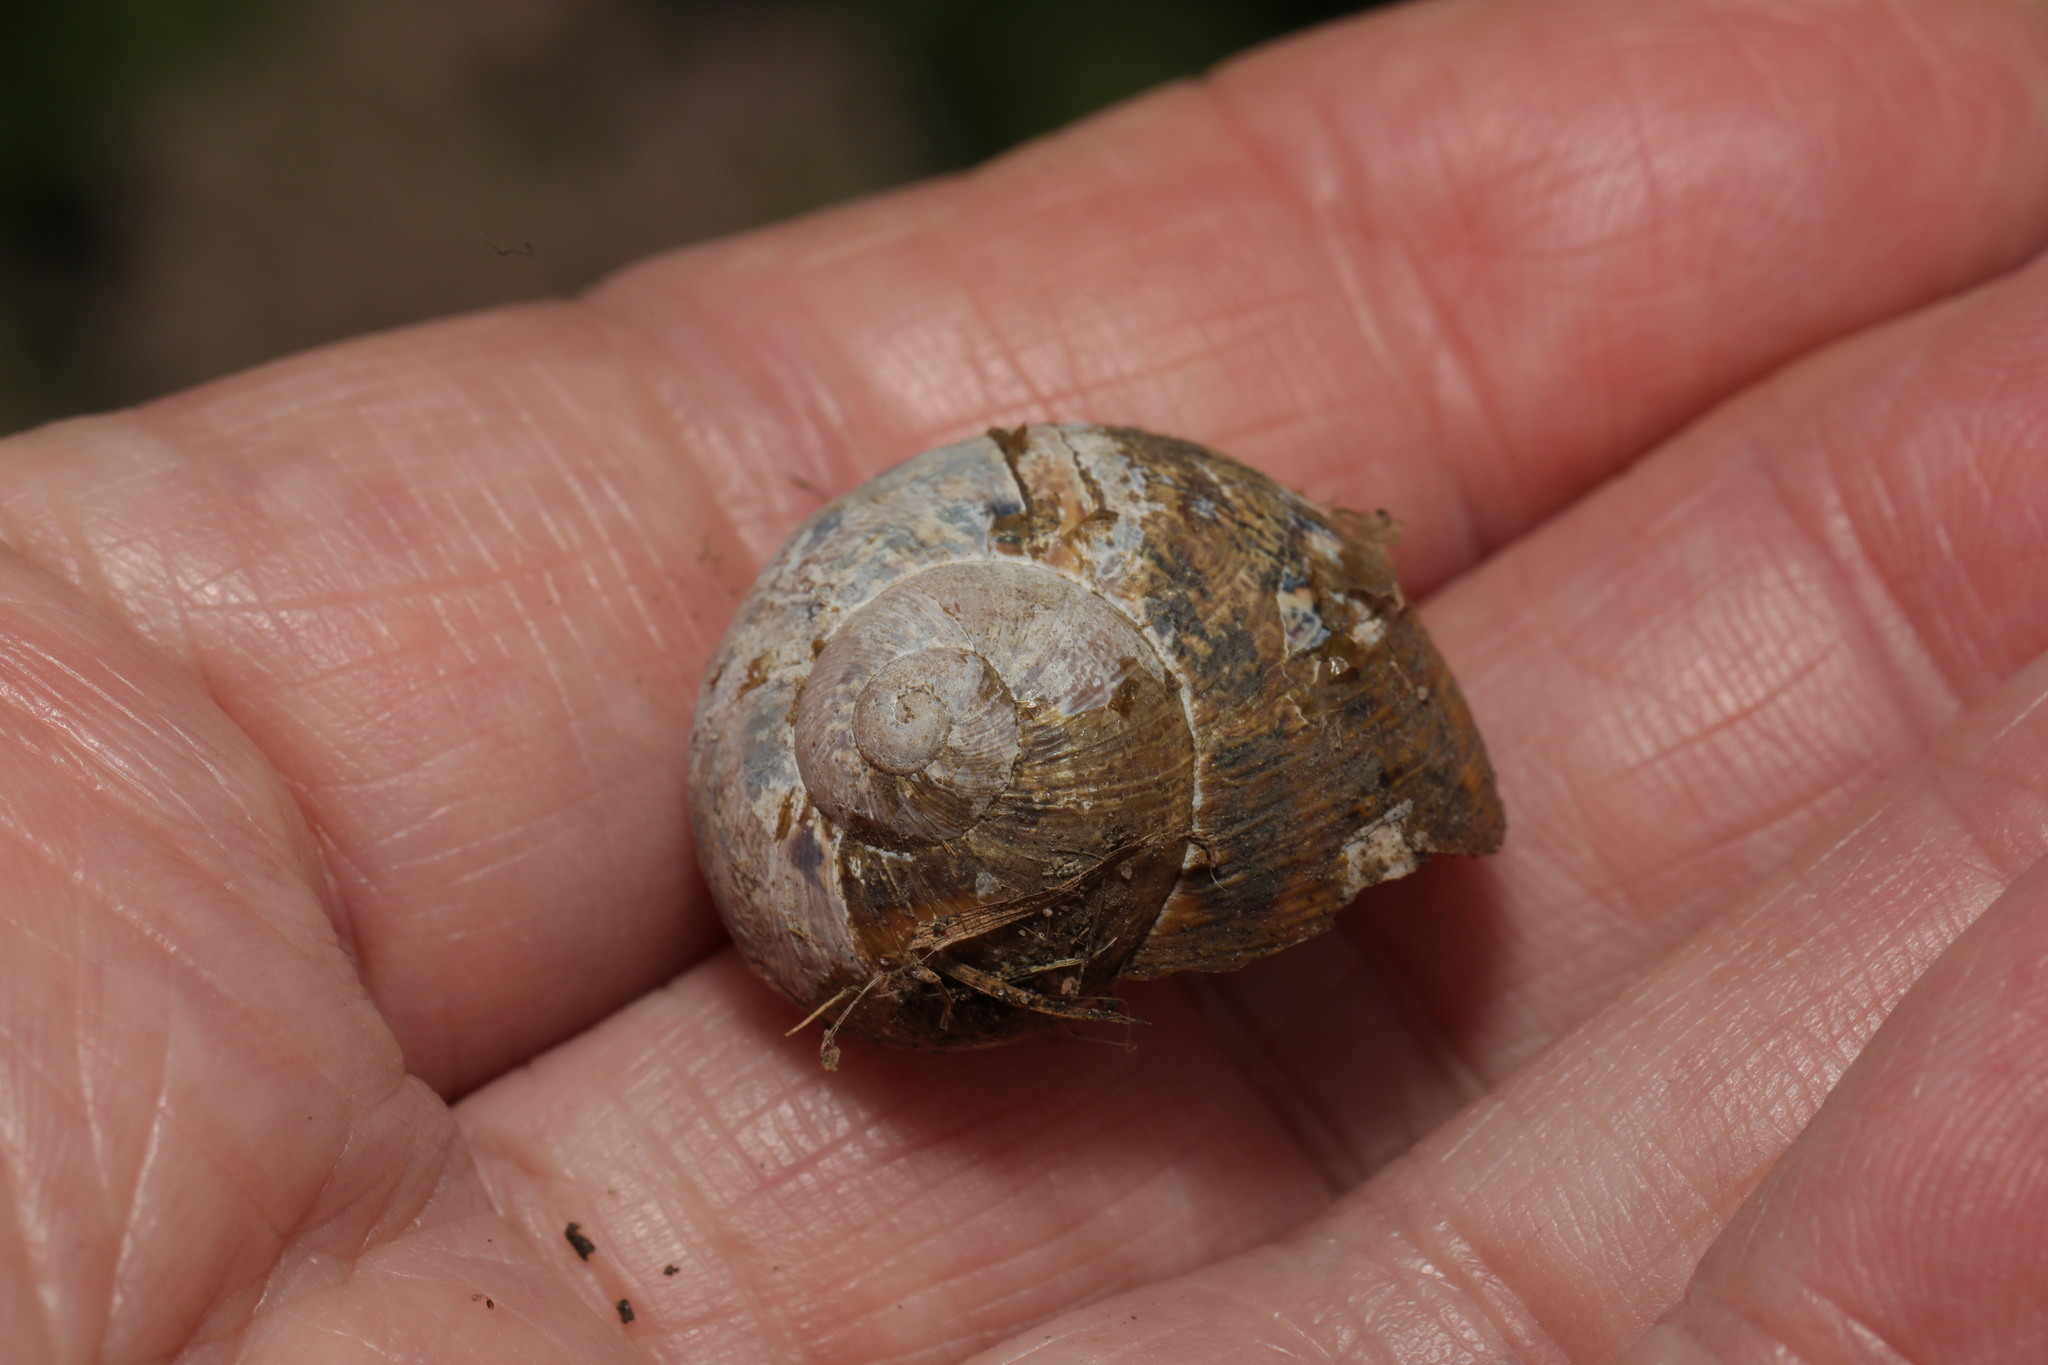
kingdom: Animalia
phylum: Mollusca
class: Gastropoda
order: Stylommatophora
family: Helicidae
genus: Cornu
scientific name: Cornu aspersum
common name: Brown garden snail
